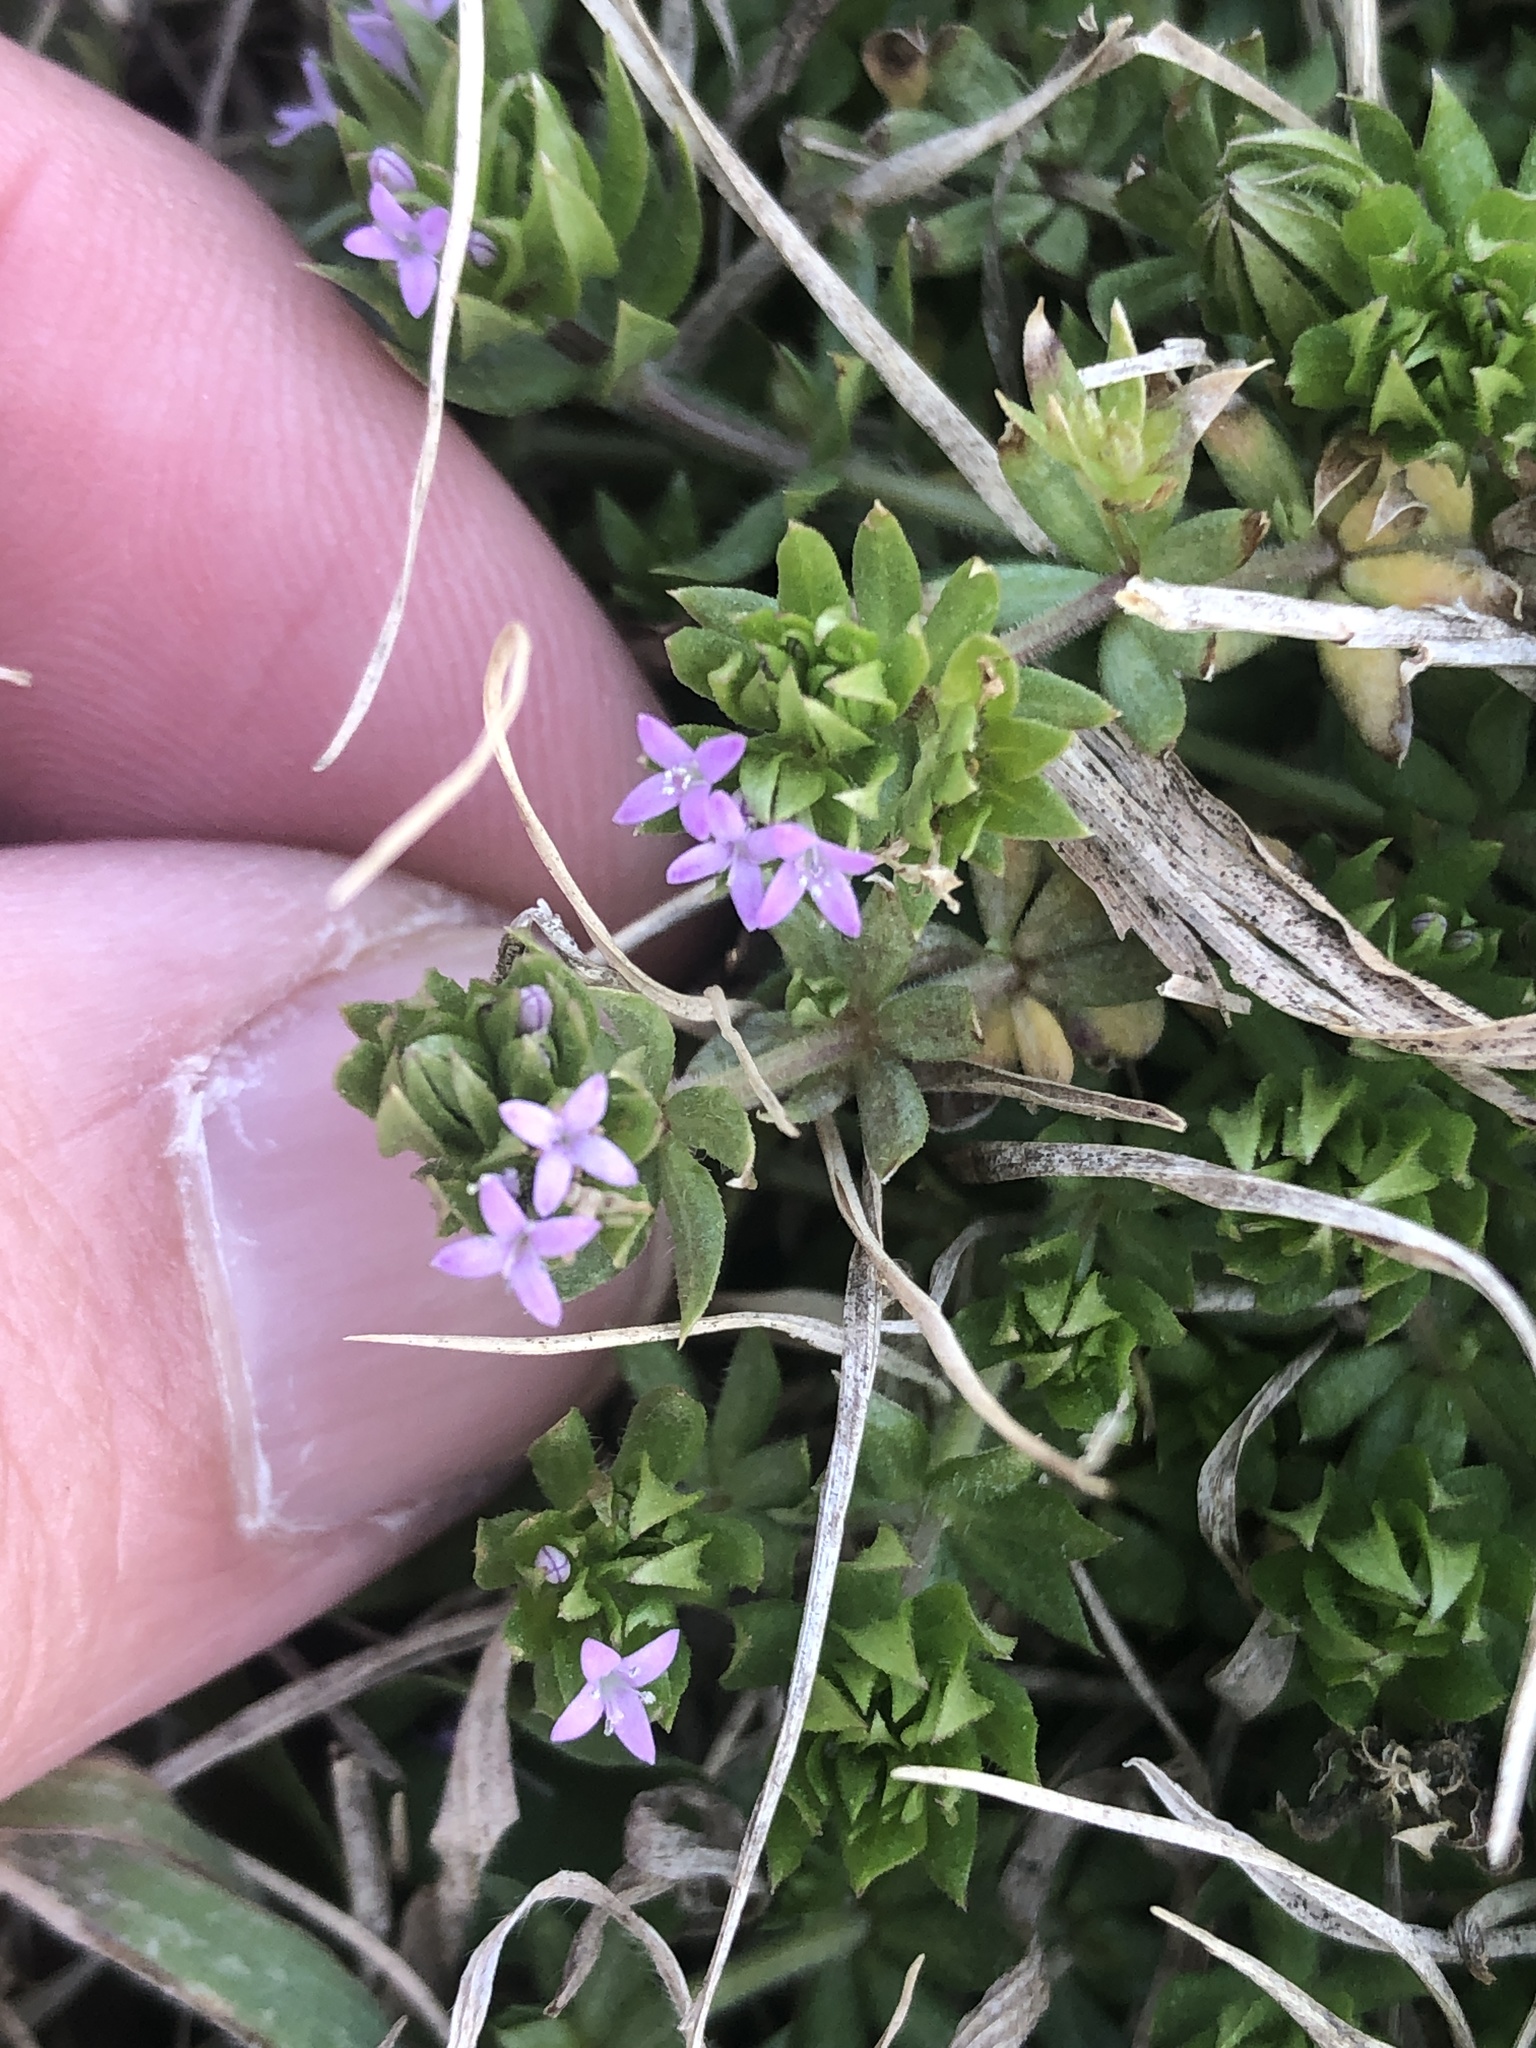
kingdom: Plantae
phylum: Tracheophyta
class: Magnoliopsida
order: Gentianales
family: Rubiaceae
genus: Sherardia
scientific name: Sherardia arvensis
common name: Field madder
